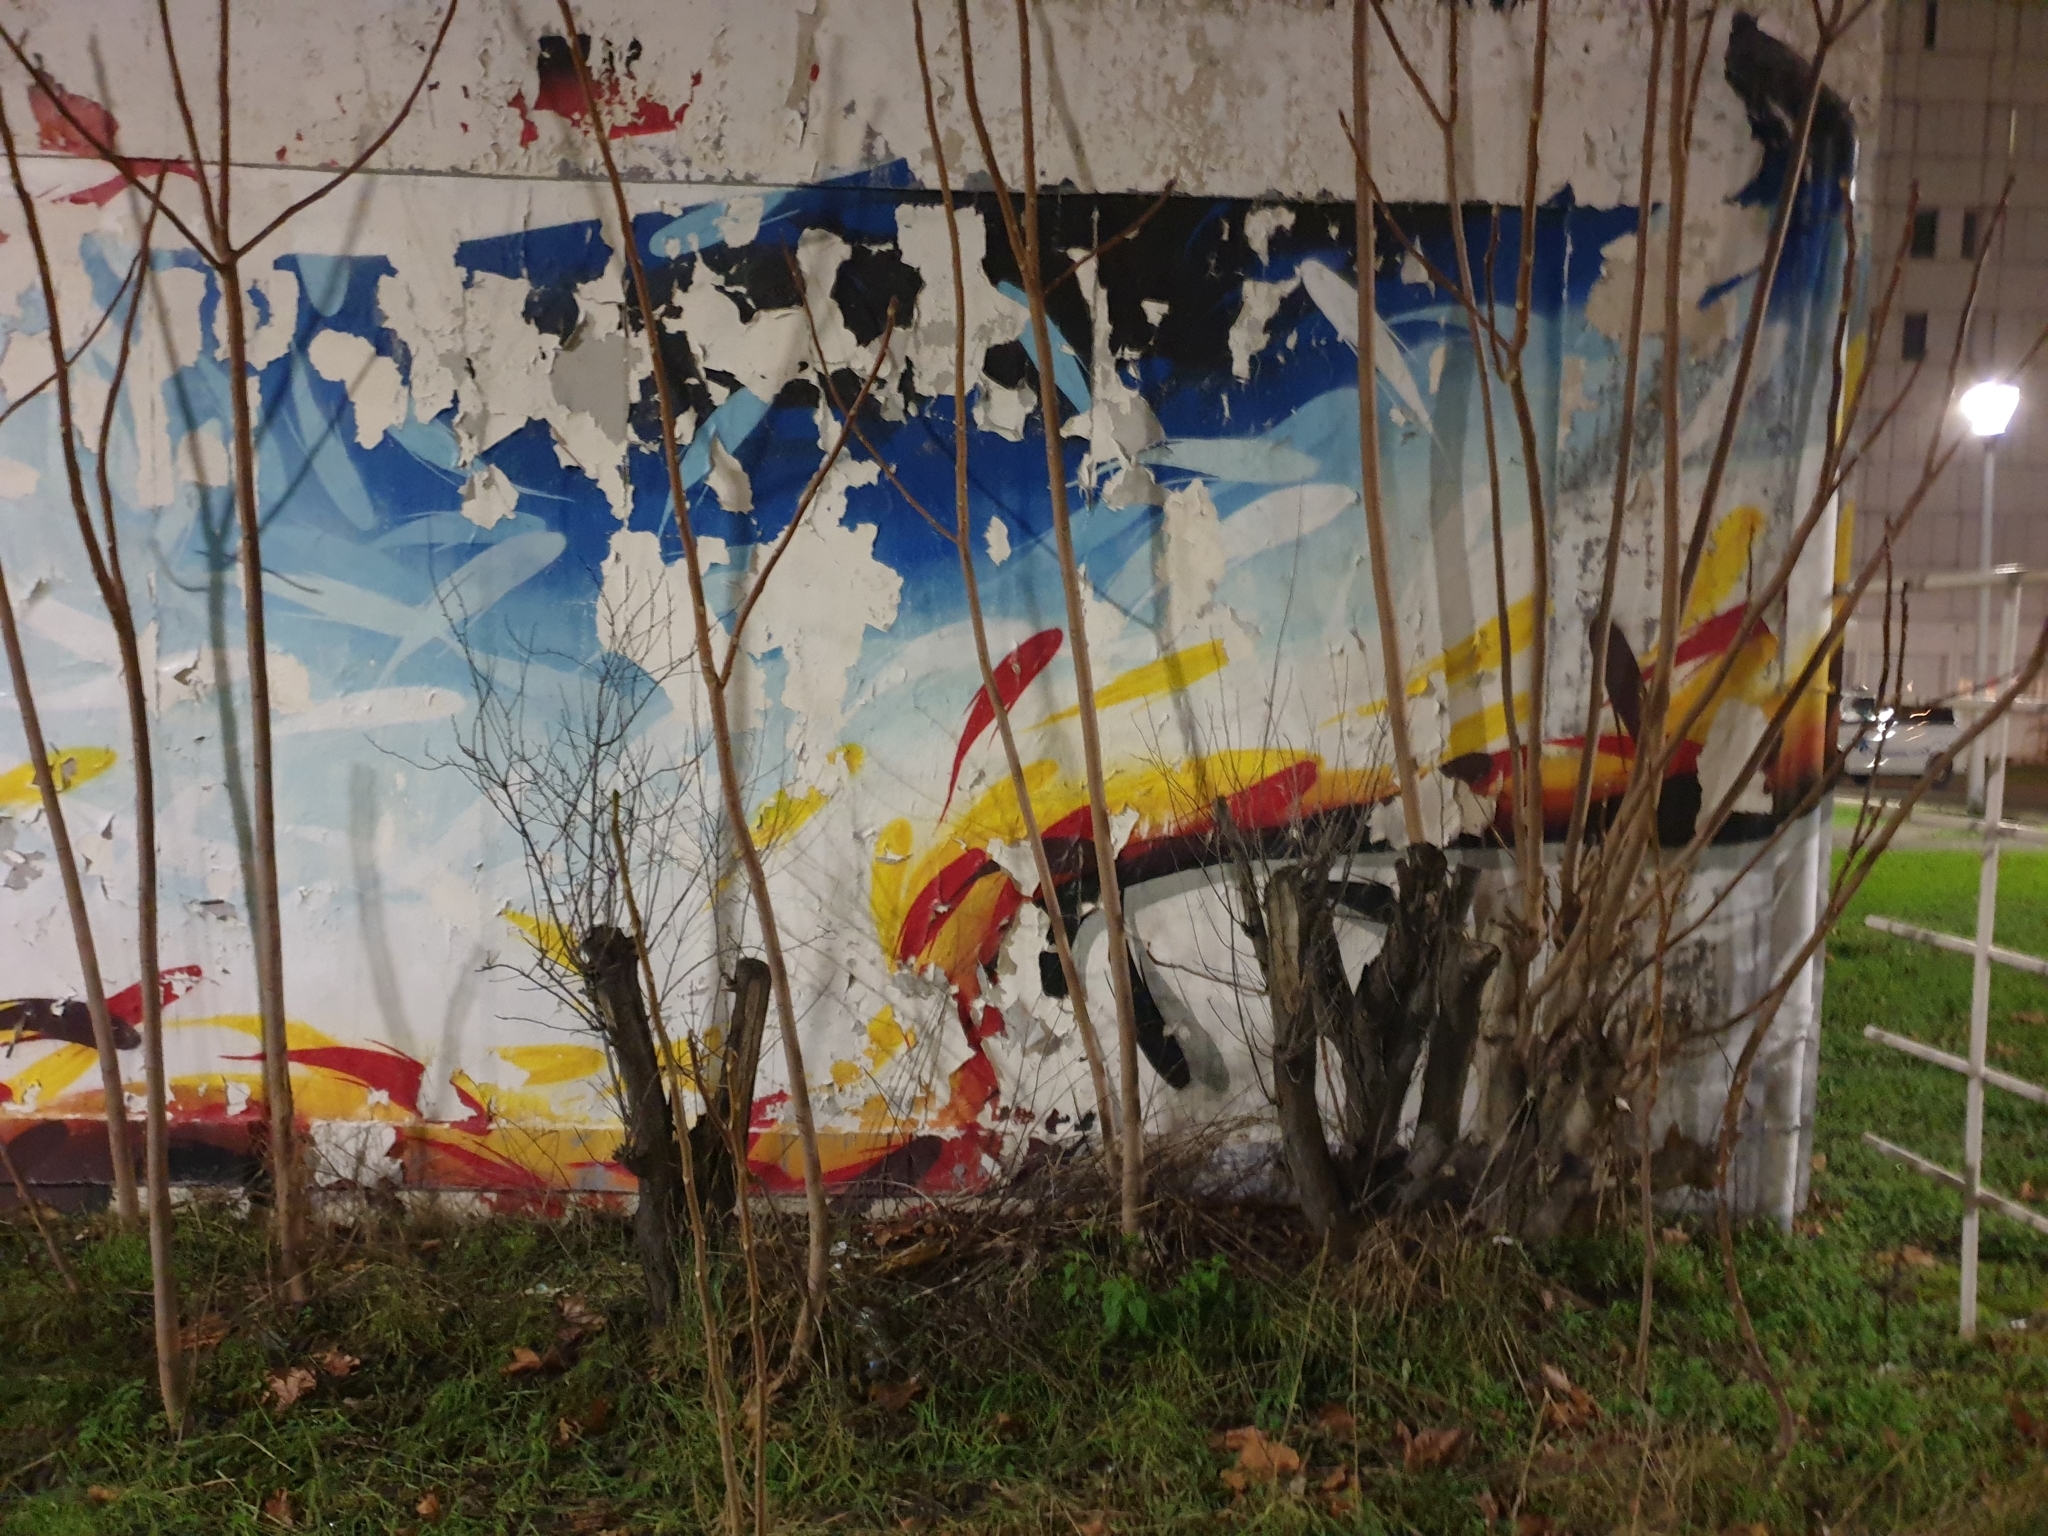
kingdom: Plantae
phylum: Tracheophyta
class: Magnoliopsida
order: Sapindales
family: Simaroubaceae
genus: Ailanthus
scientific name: Ailanthus altissima
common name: Tree-of-heaven
